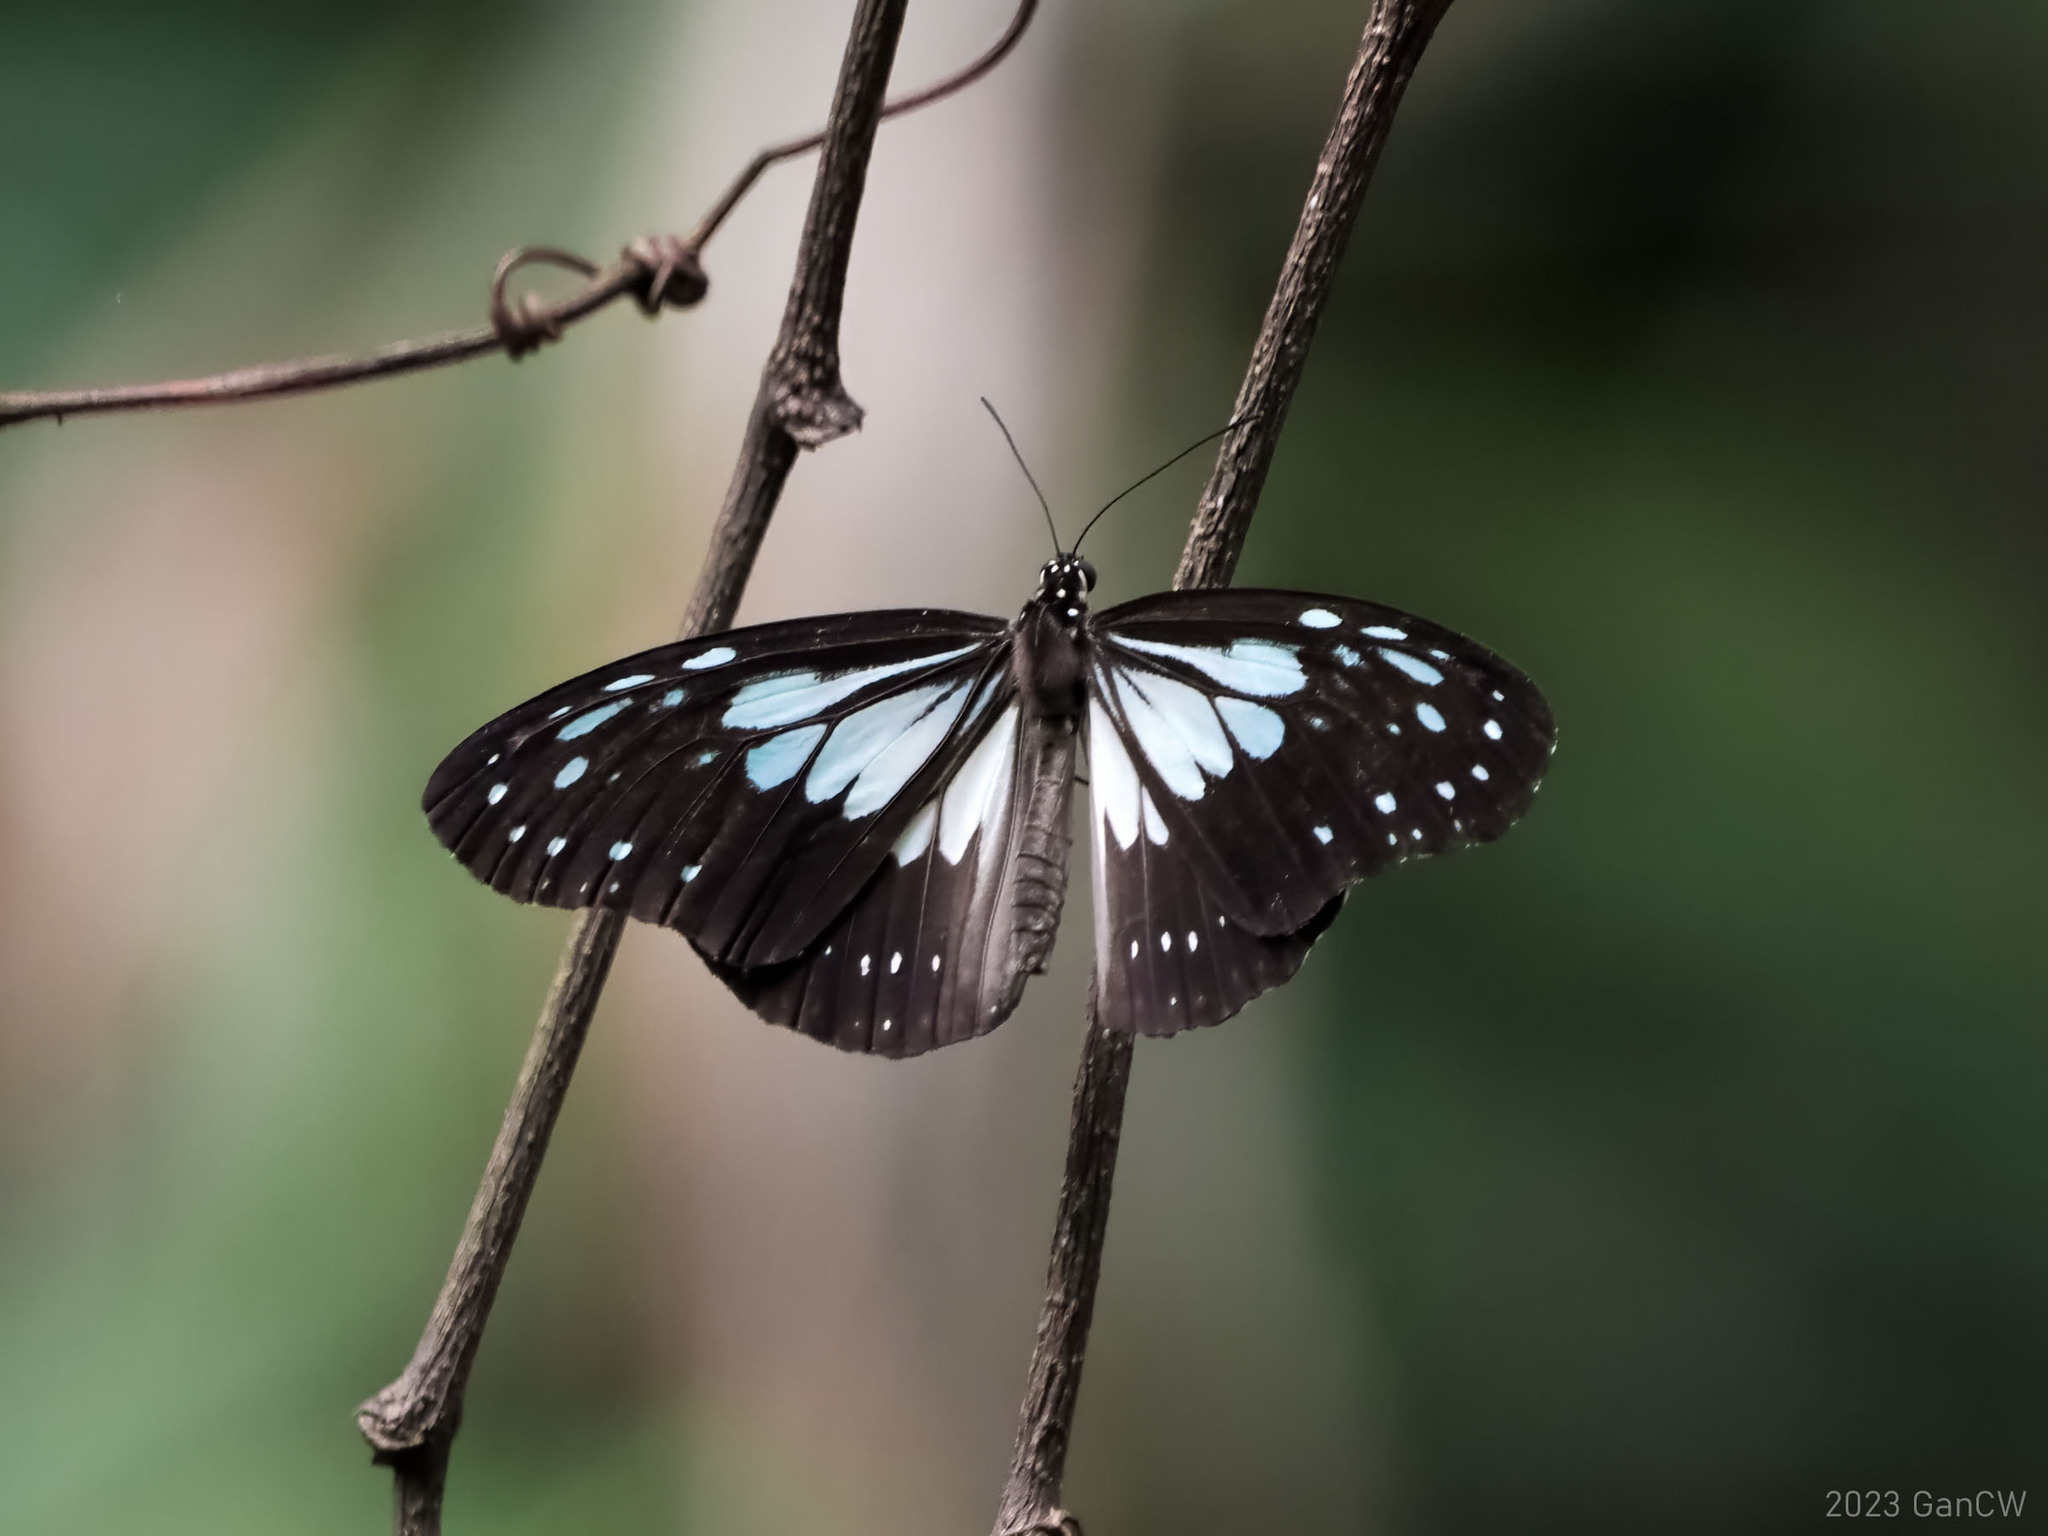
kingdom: Animalia
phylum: Arthropoda
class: Insecta
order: Lepidoptera
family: Nymphalidae
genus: Ideopsis
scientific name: Ideopsis juventa
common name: Grey glassy tiger
